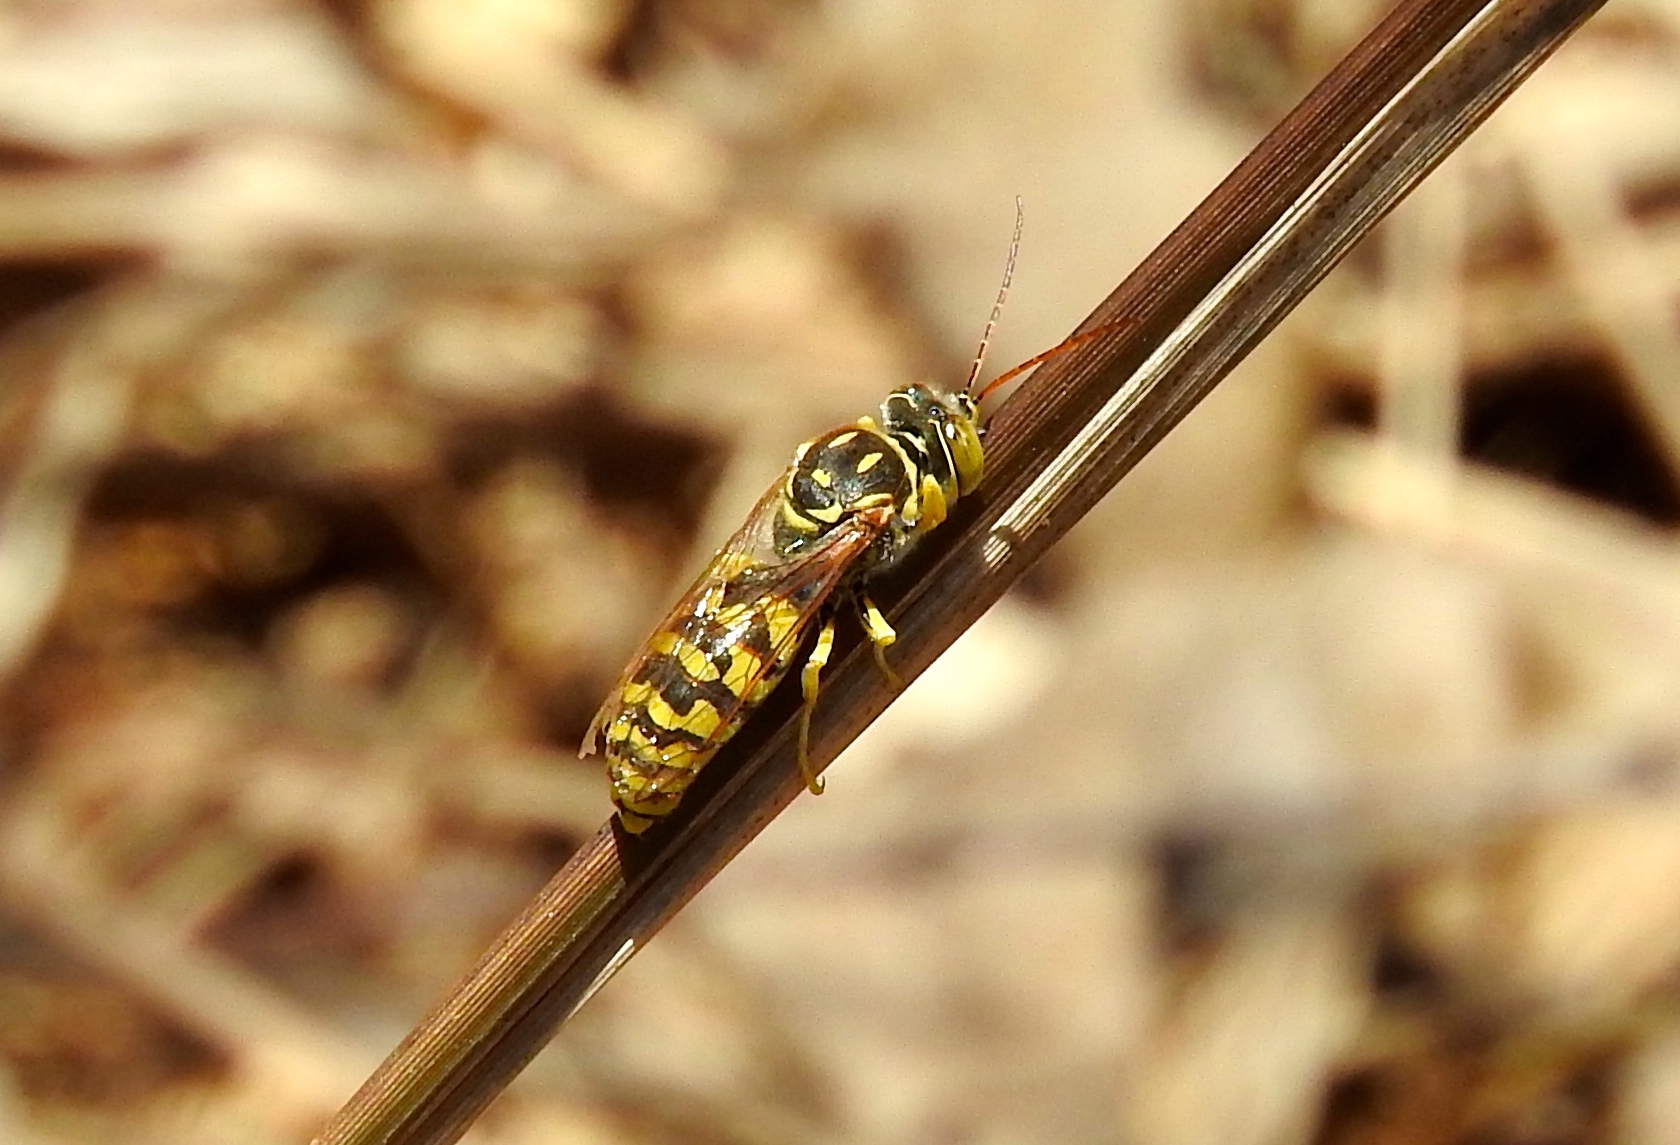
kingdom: Animalia
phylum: Arthropoda
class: Insecta
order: Hymenoptera
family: Crabronidae
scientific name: Crabronidae
